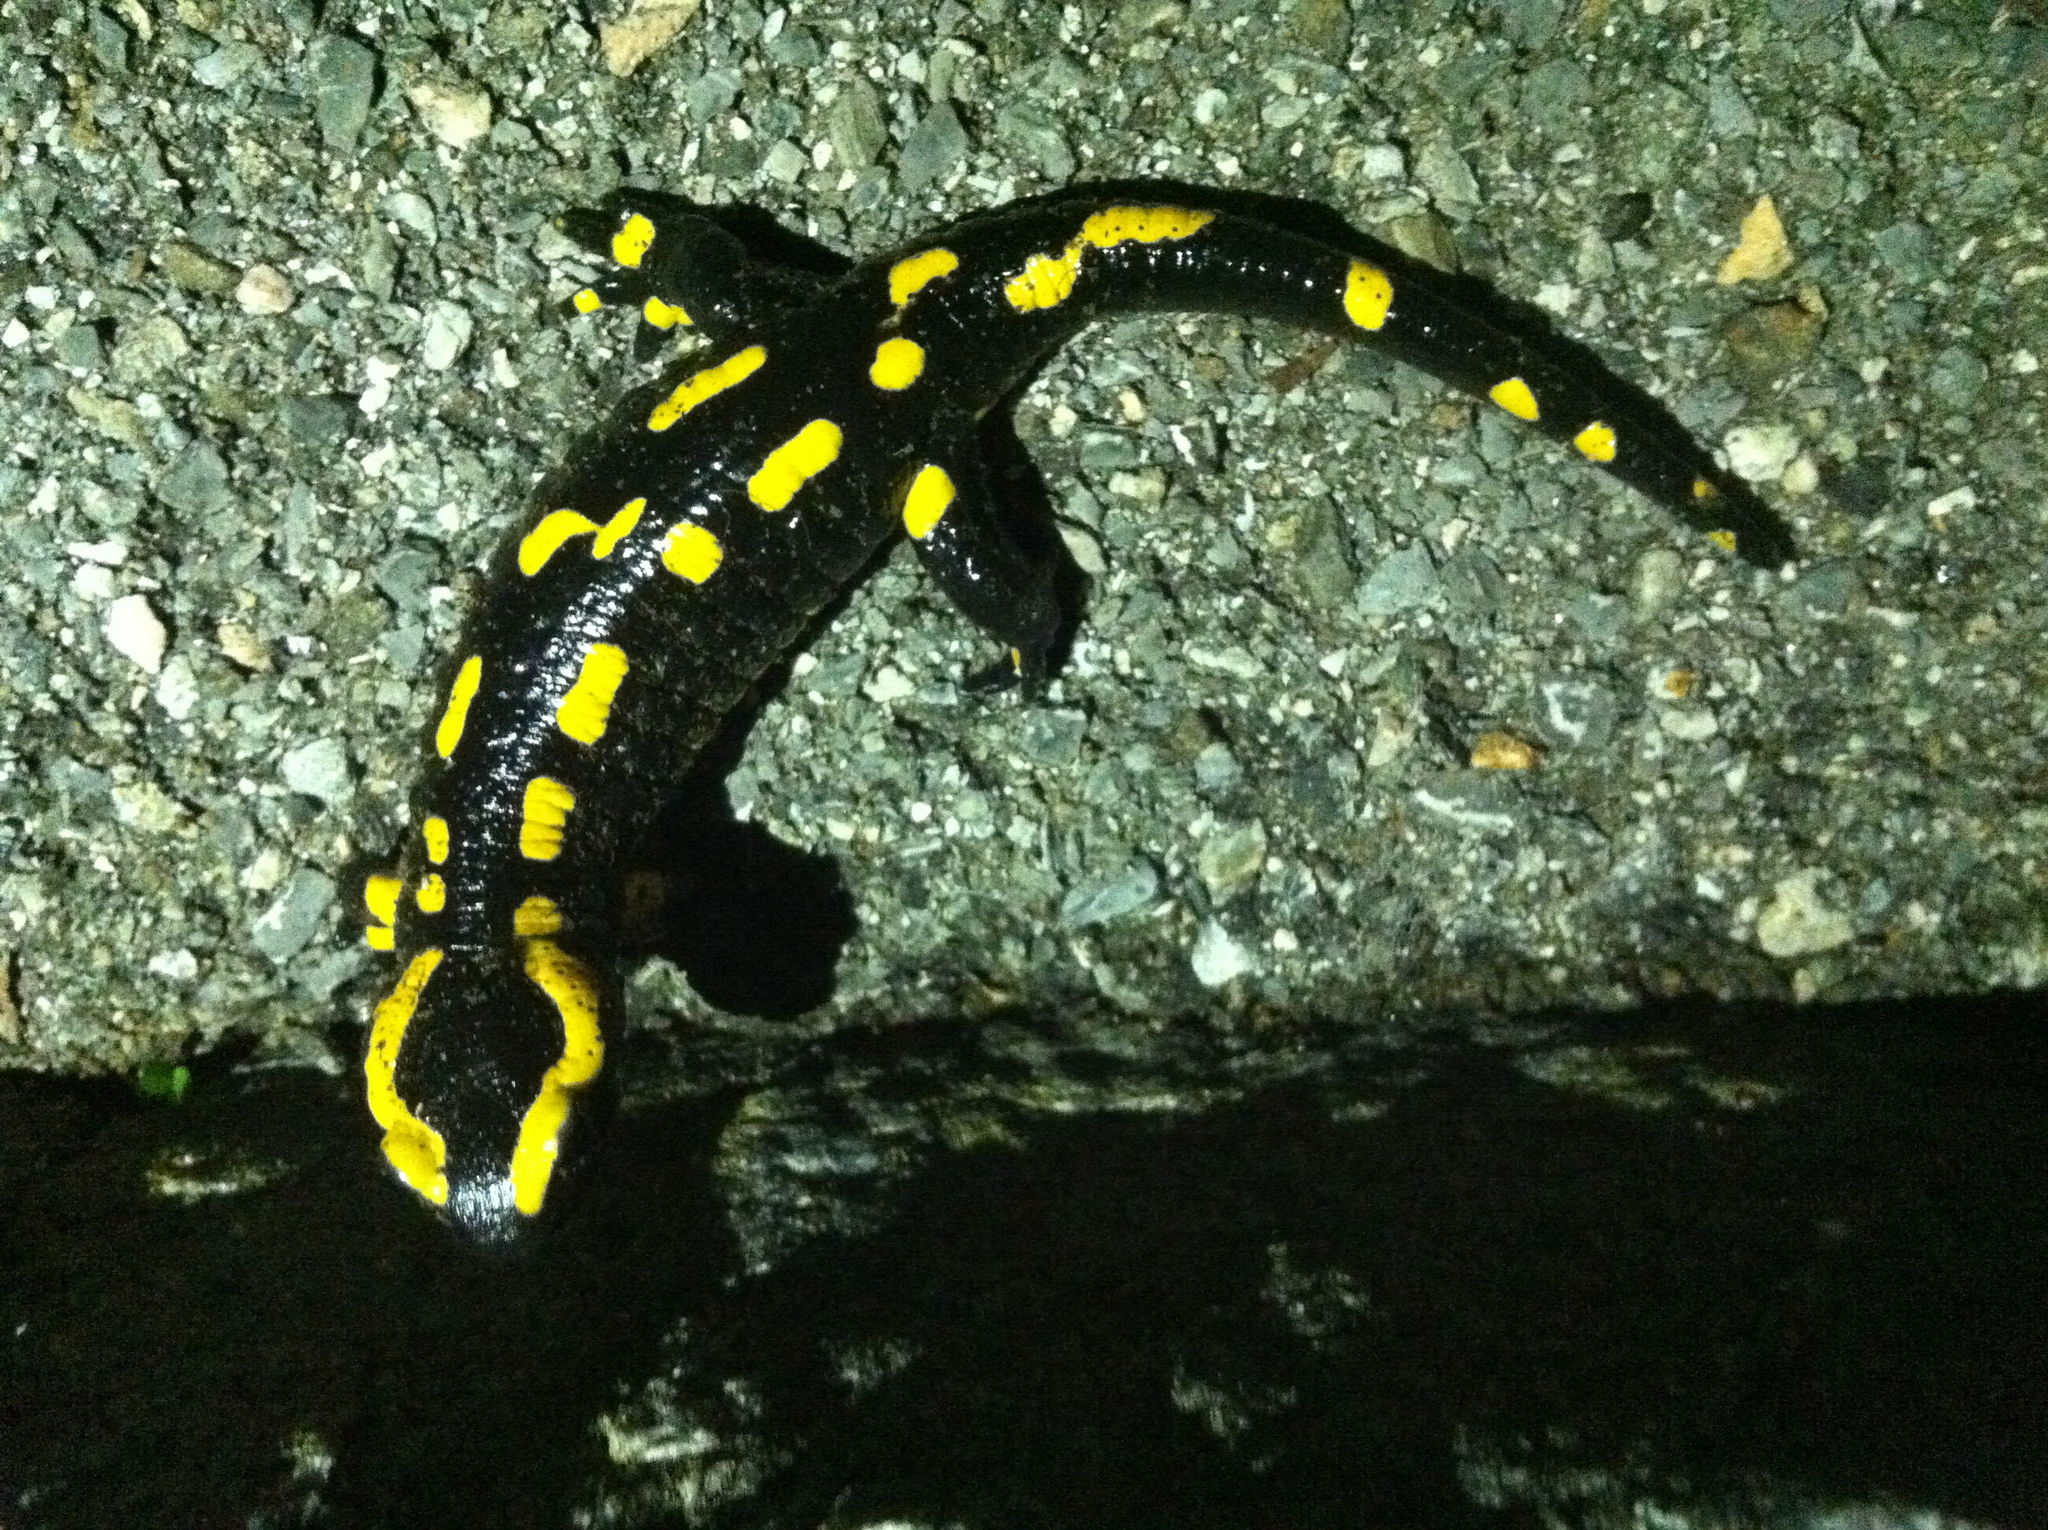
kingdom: Animalia
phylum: Chordata
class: Amphibia
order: Caudata
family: Salamandridae
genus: Salamandra
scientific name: Salamandra salamandra
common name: Fire salamander
